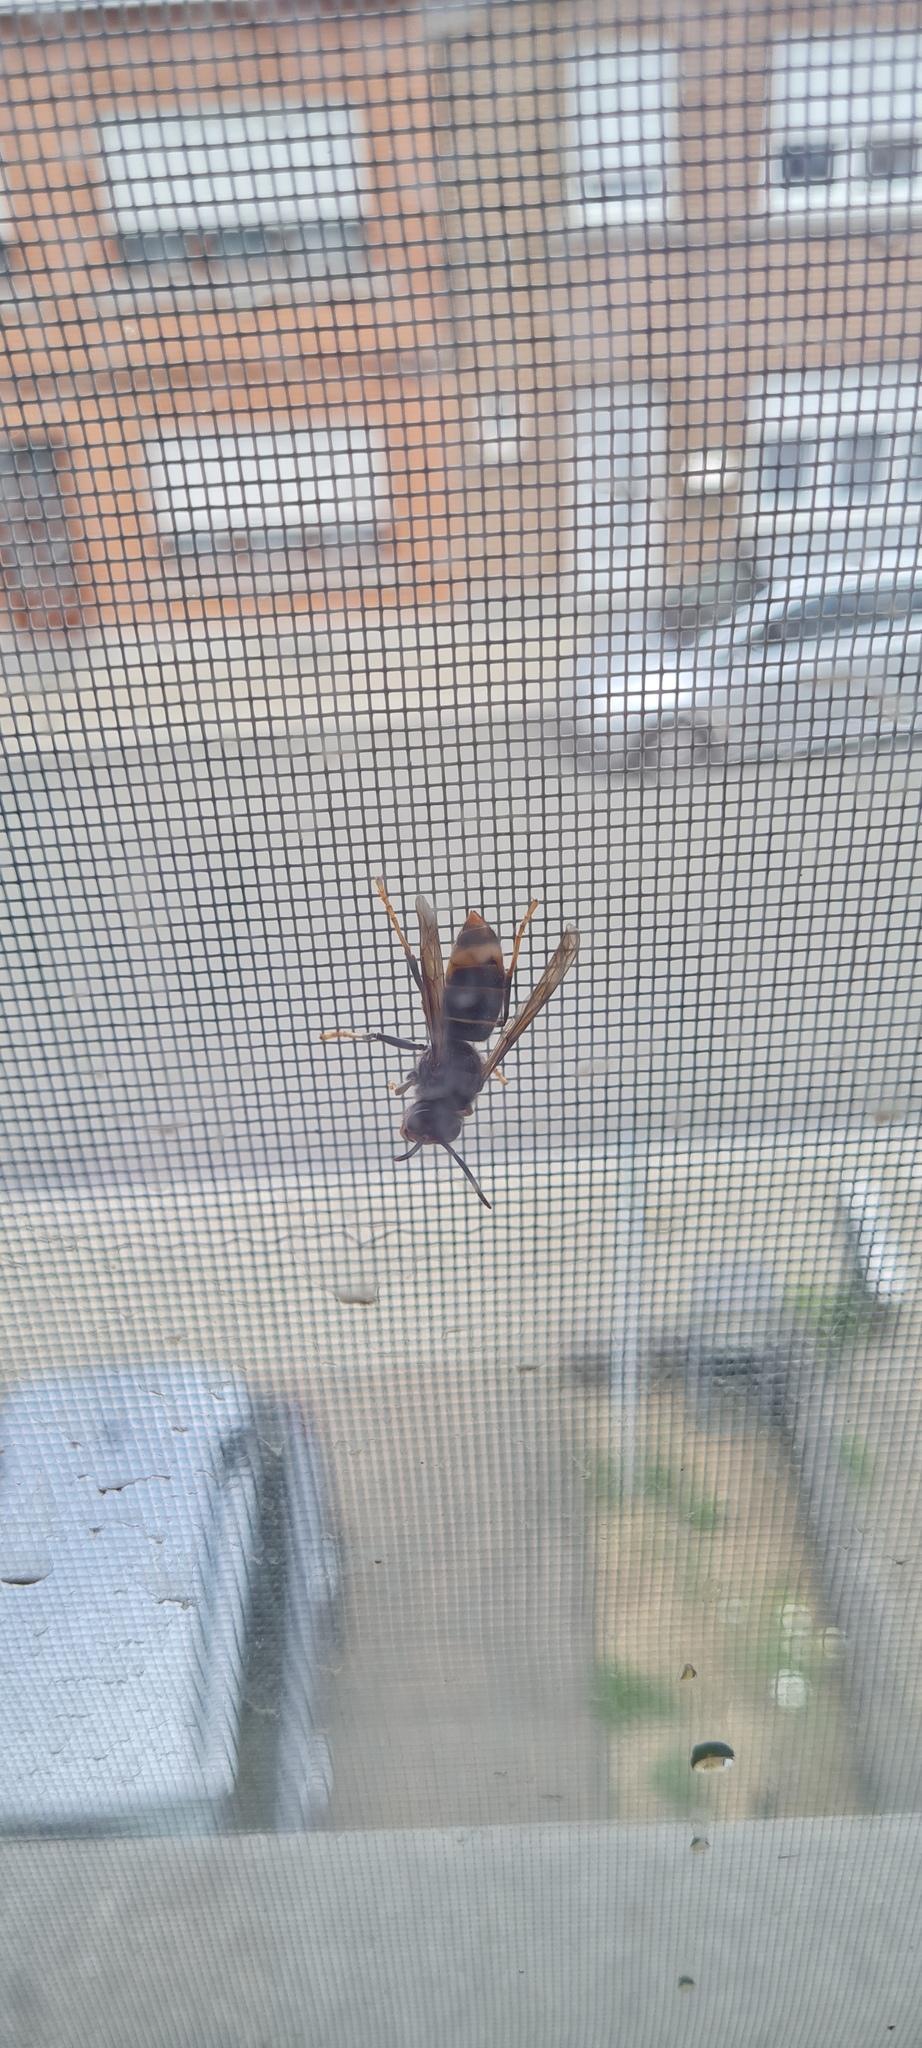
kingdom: Animalia
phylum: Arthropoda
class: Insecta
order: Hymenoptera
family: Vespidae
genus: Vespa
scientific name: Vespa velutina
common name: Asian hornet
